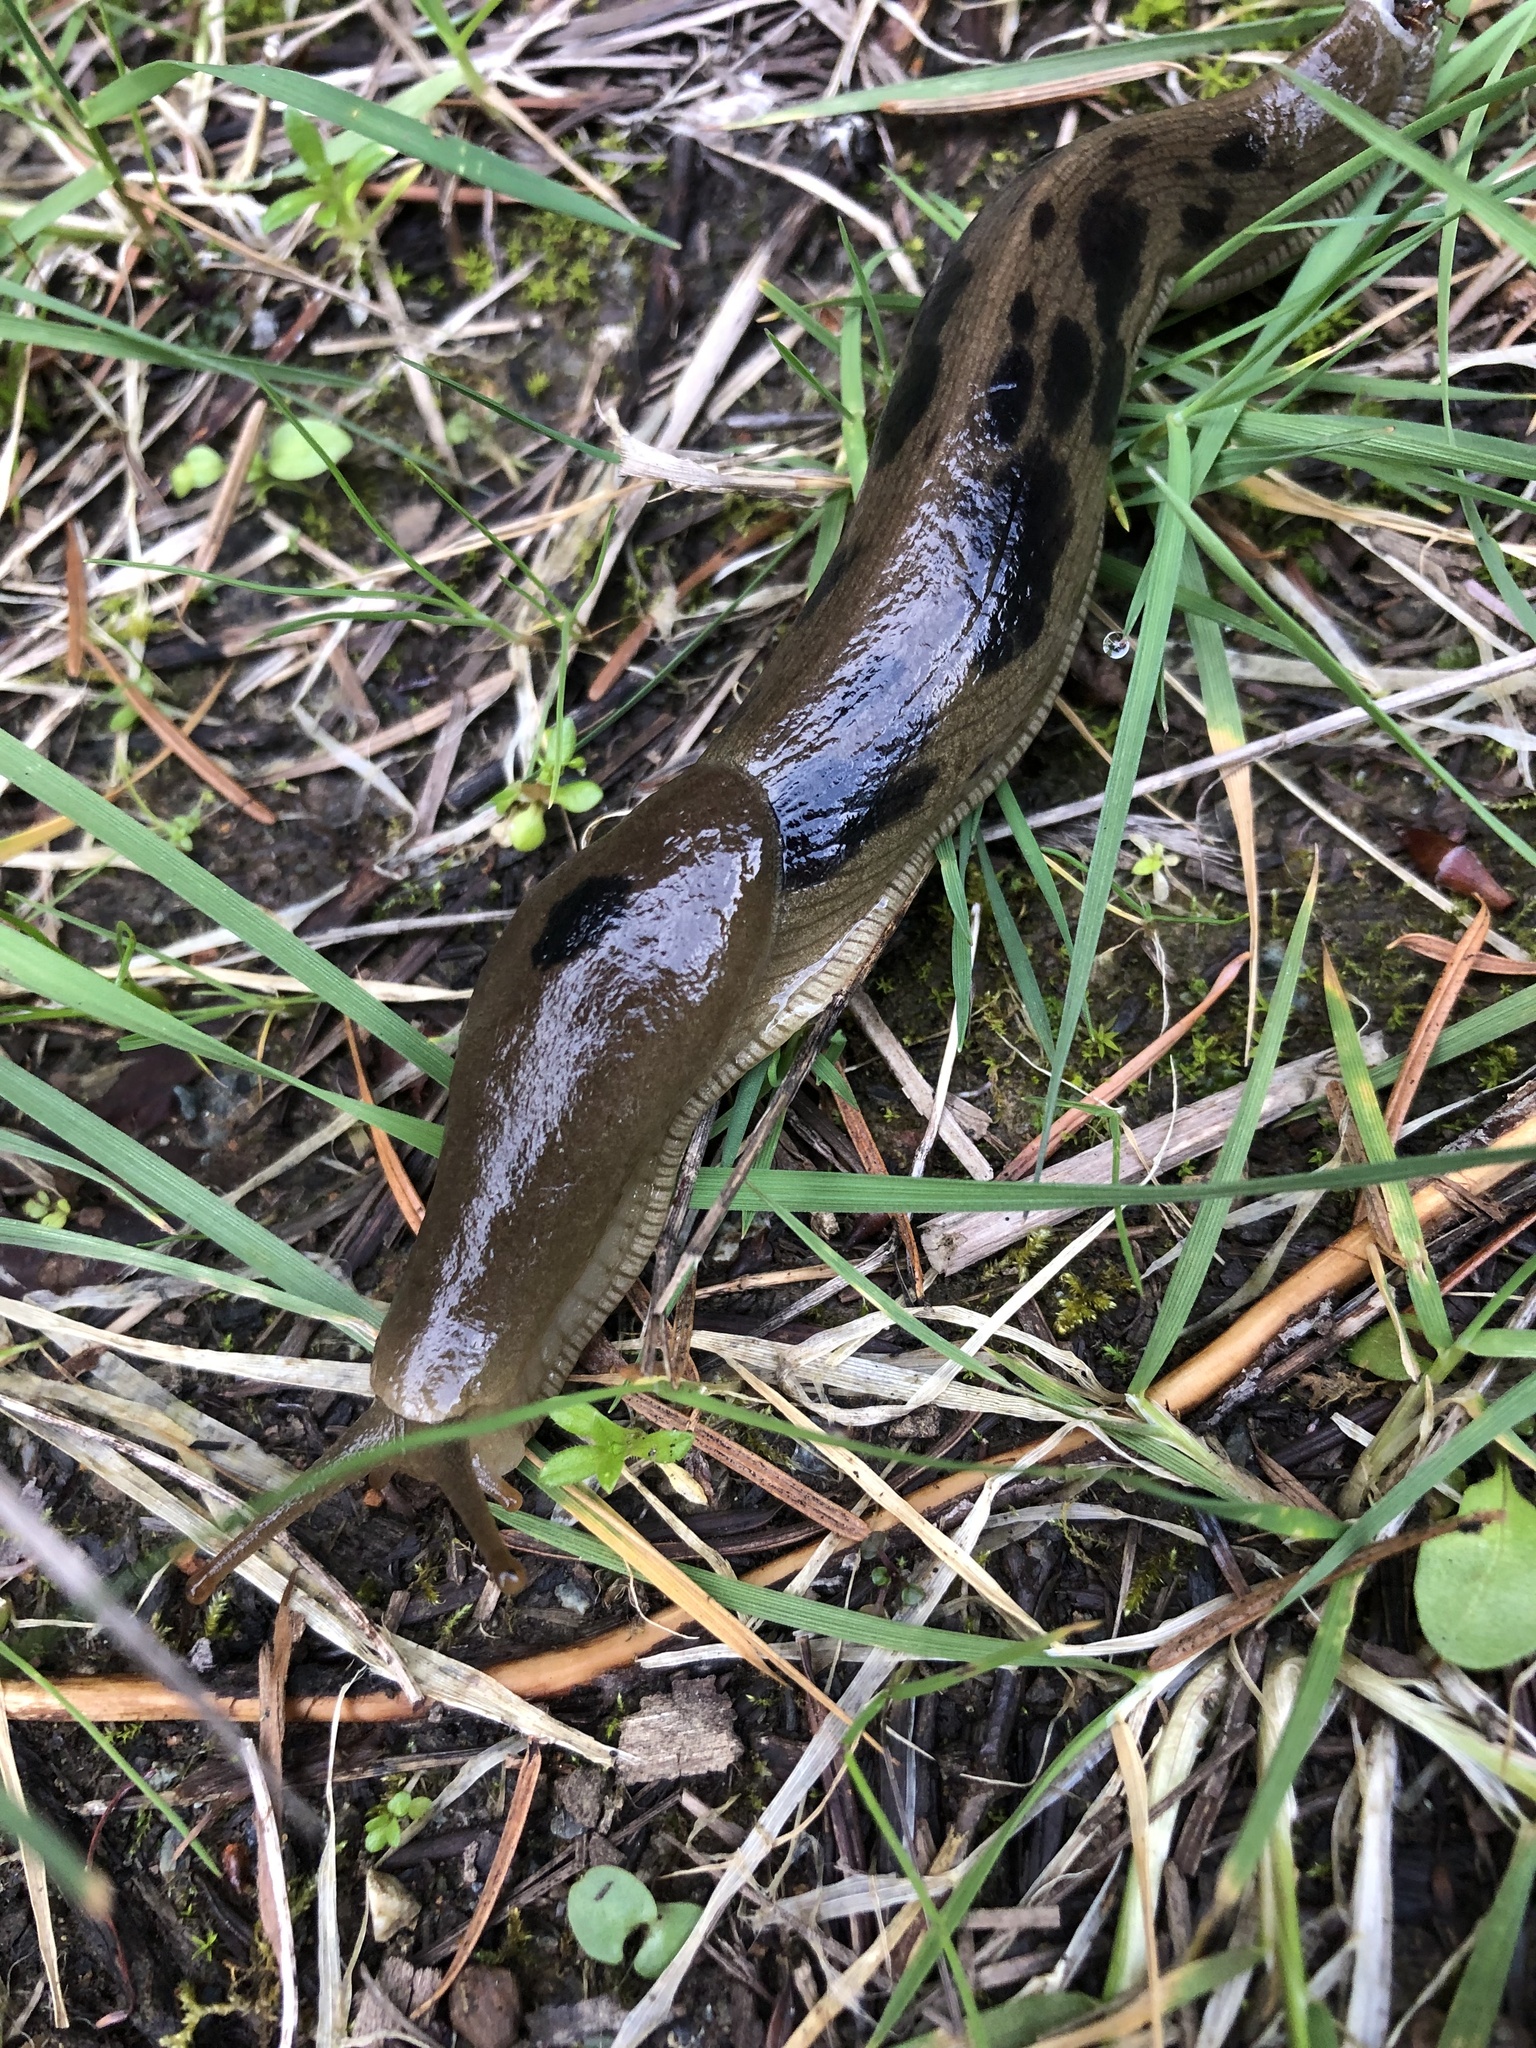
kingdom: Animalia
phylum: Mollusca
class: Gastropoda
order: Stylommatophora
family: Ariolimacidae
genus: Ariolimax
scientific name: Ariolimax columbianus
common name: Pacific banana slug
